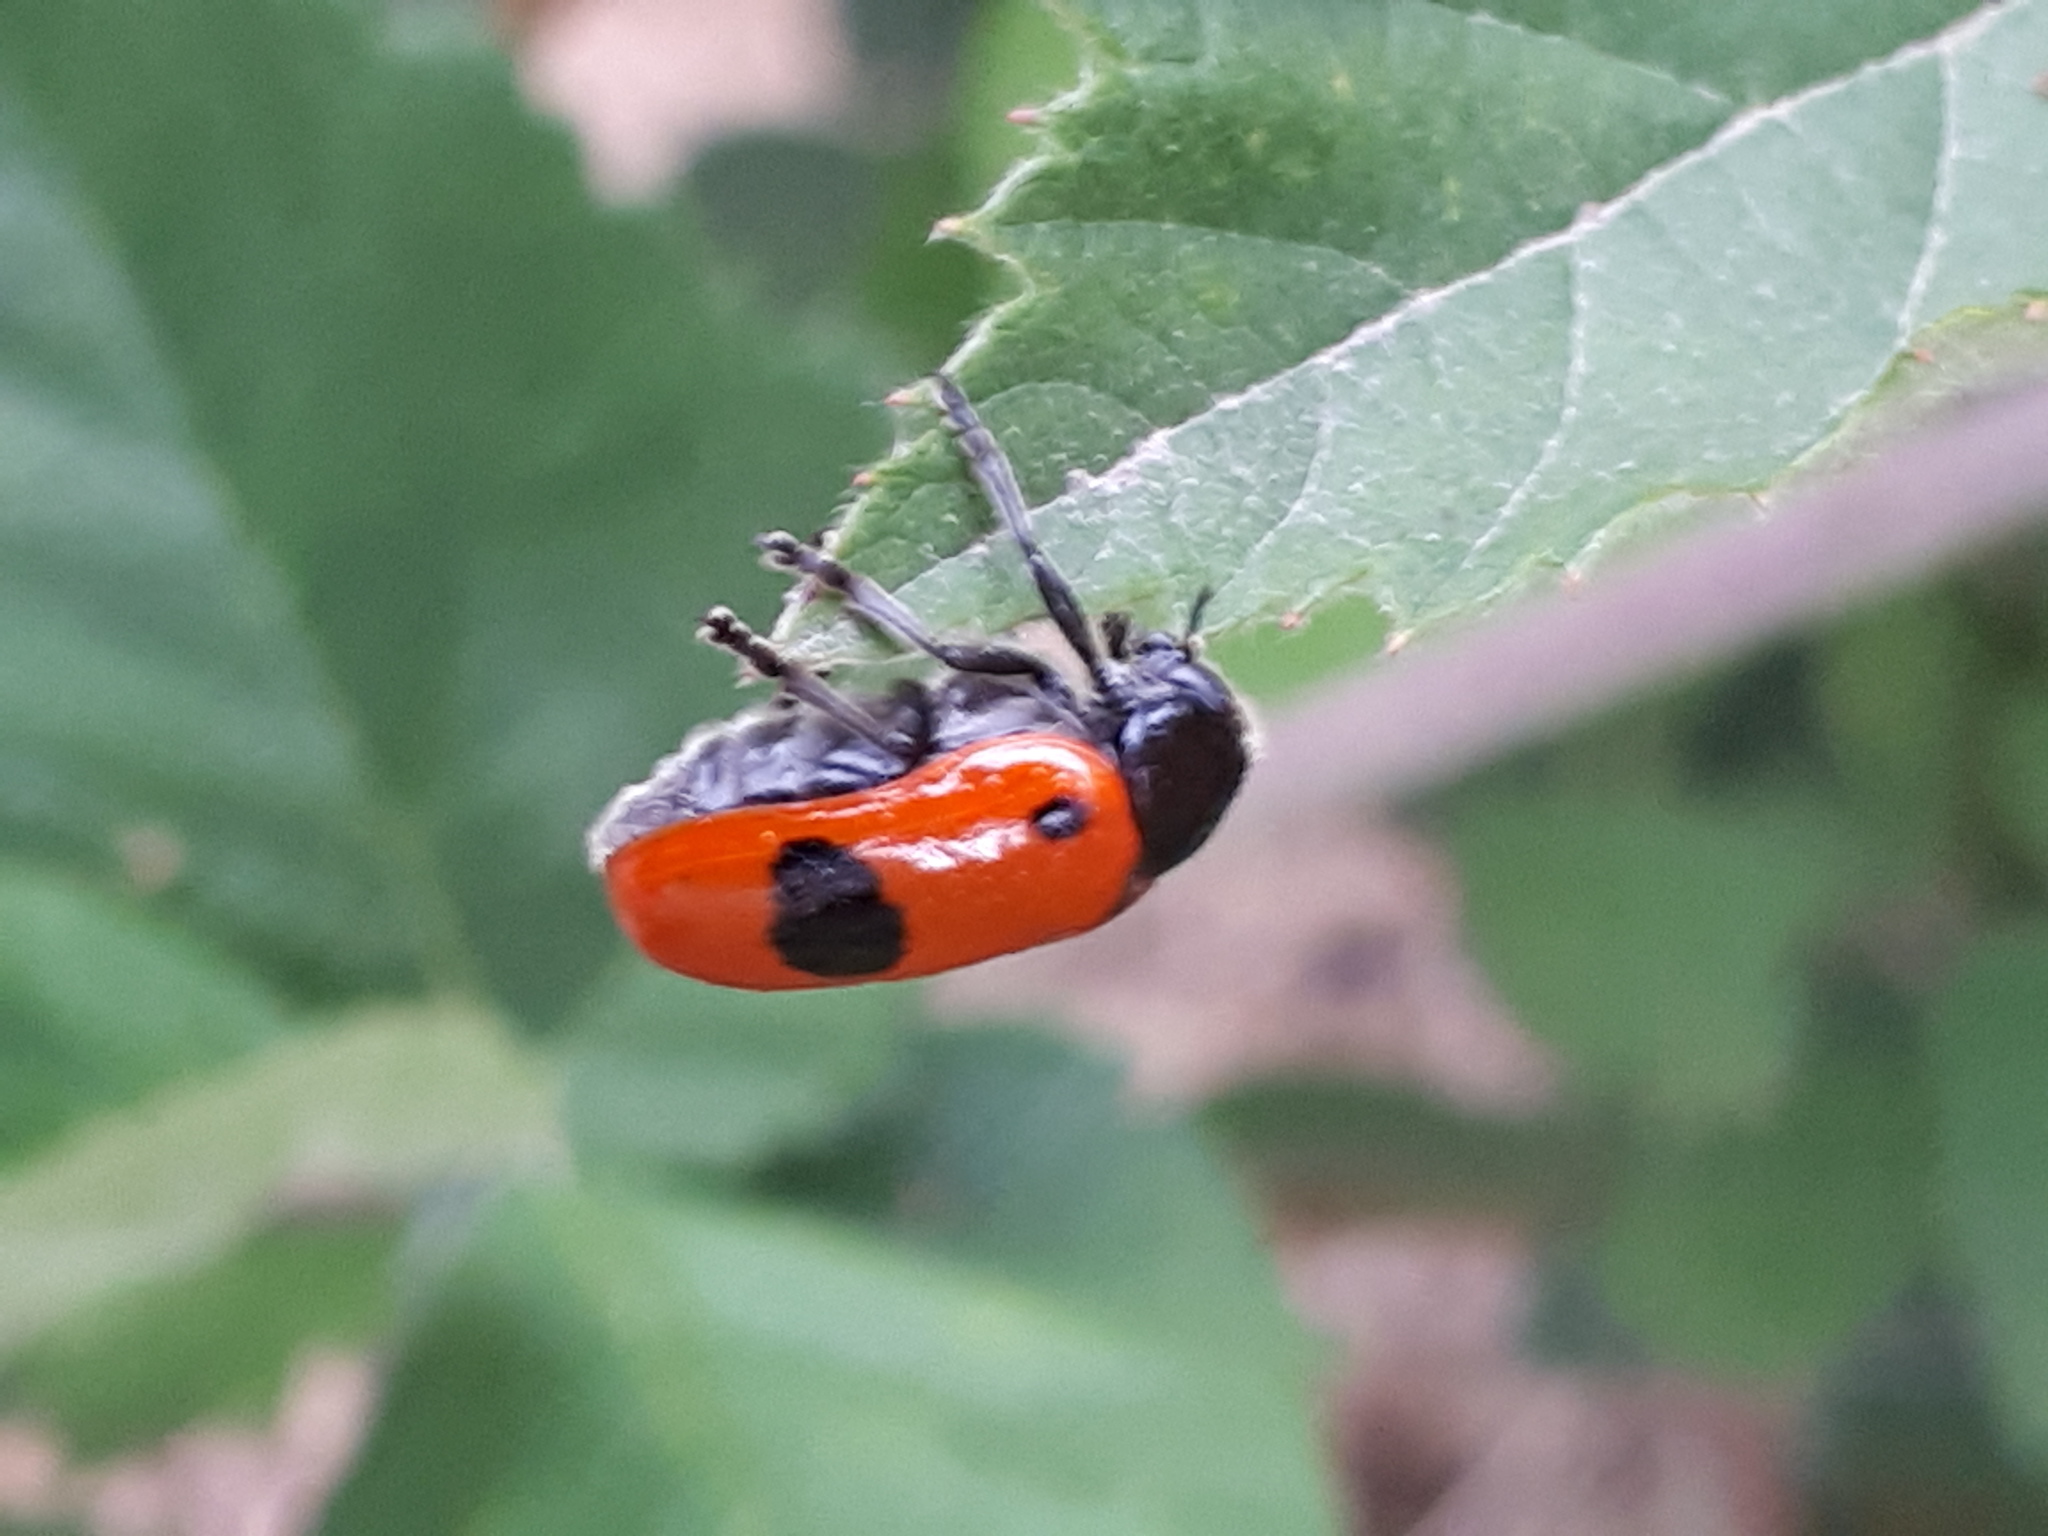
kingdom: Animalia
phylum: Arthropoda
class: Insecta
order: Coleoptera
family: Chrysomelidae
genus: Clytra
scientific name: Clytra laeviuscula
